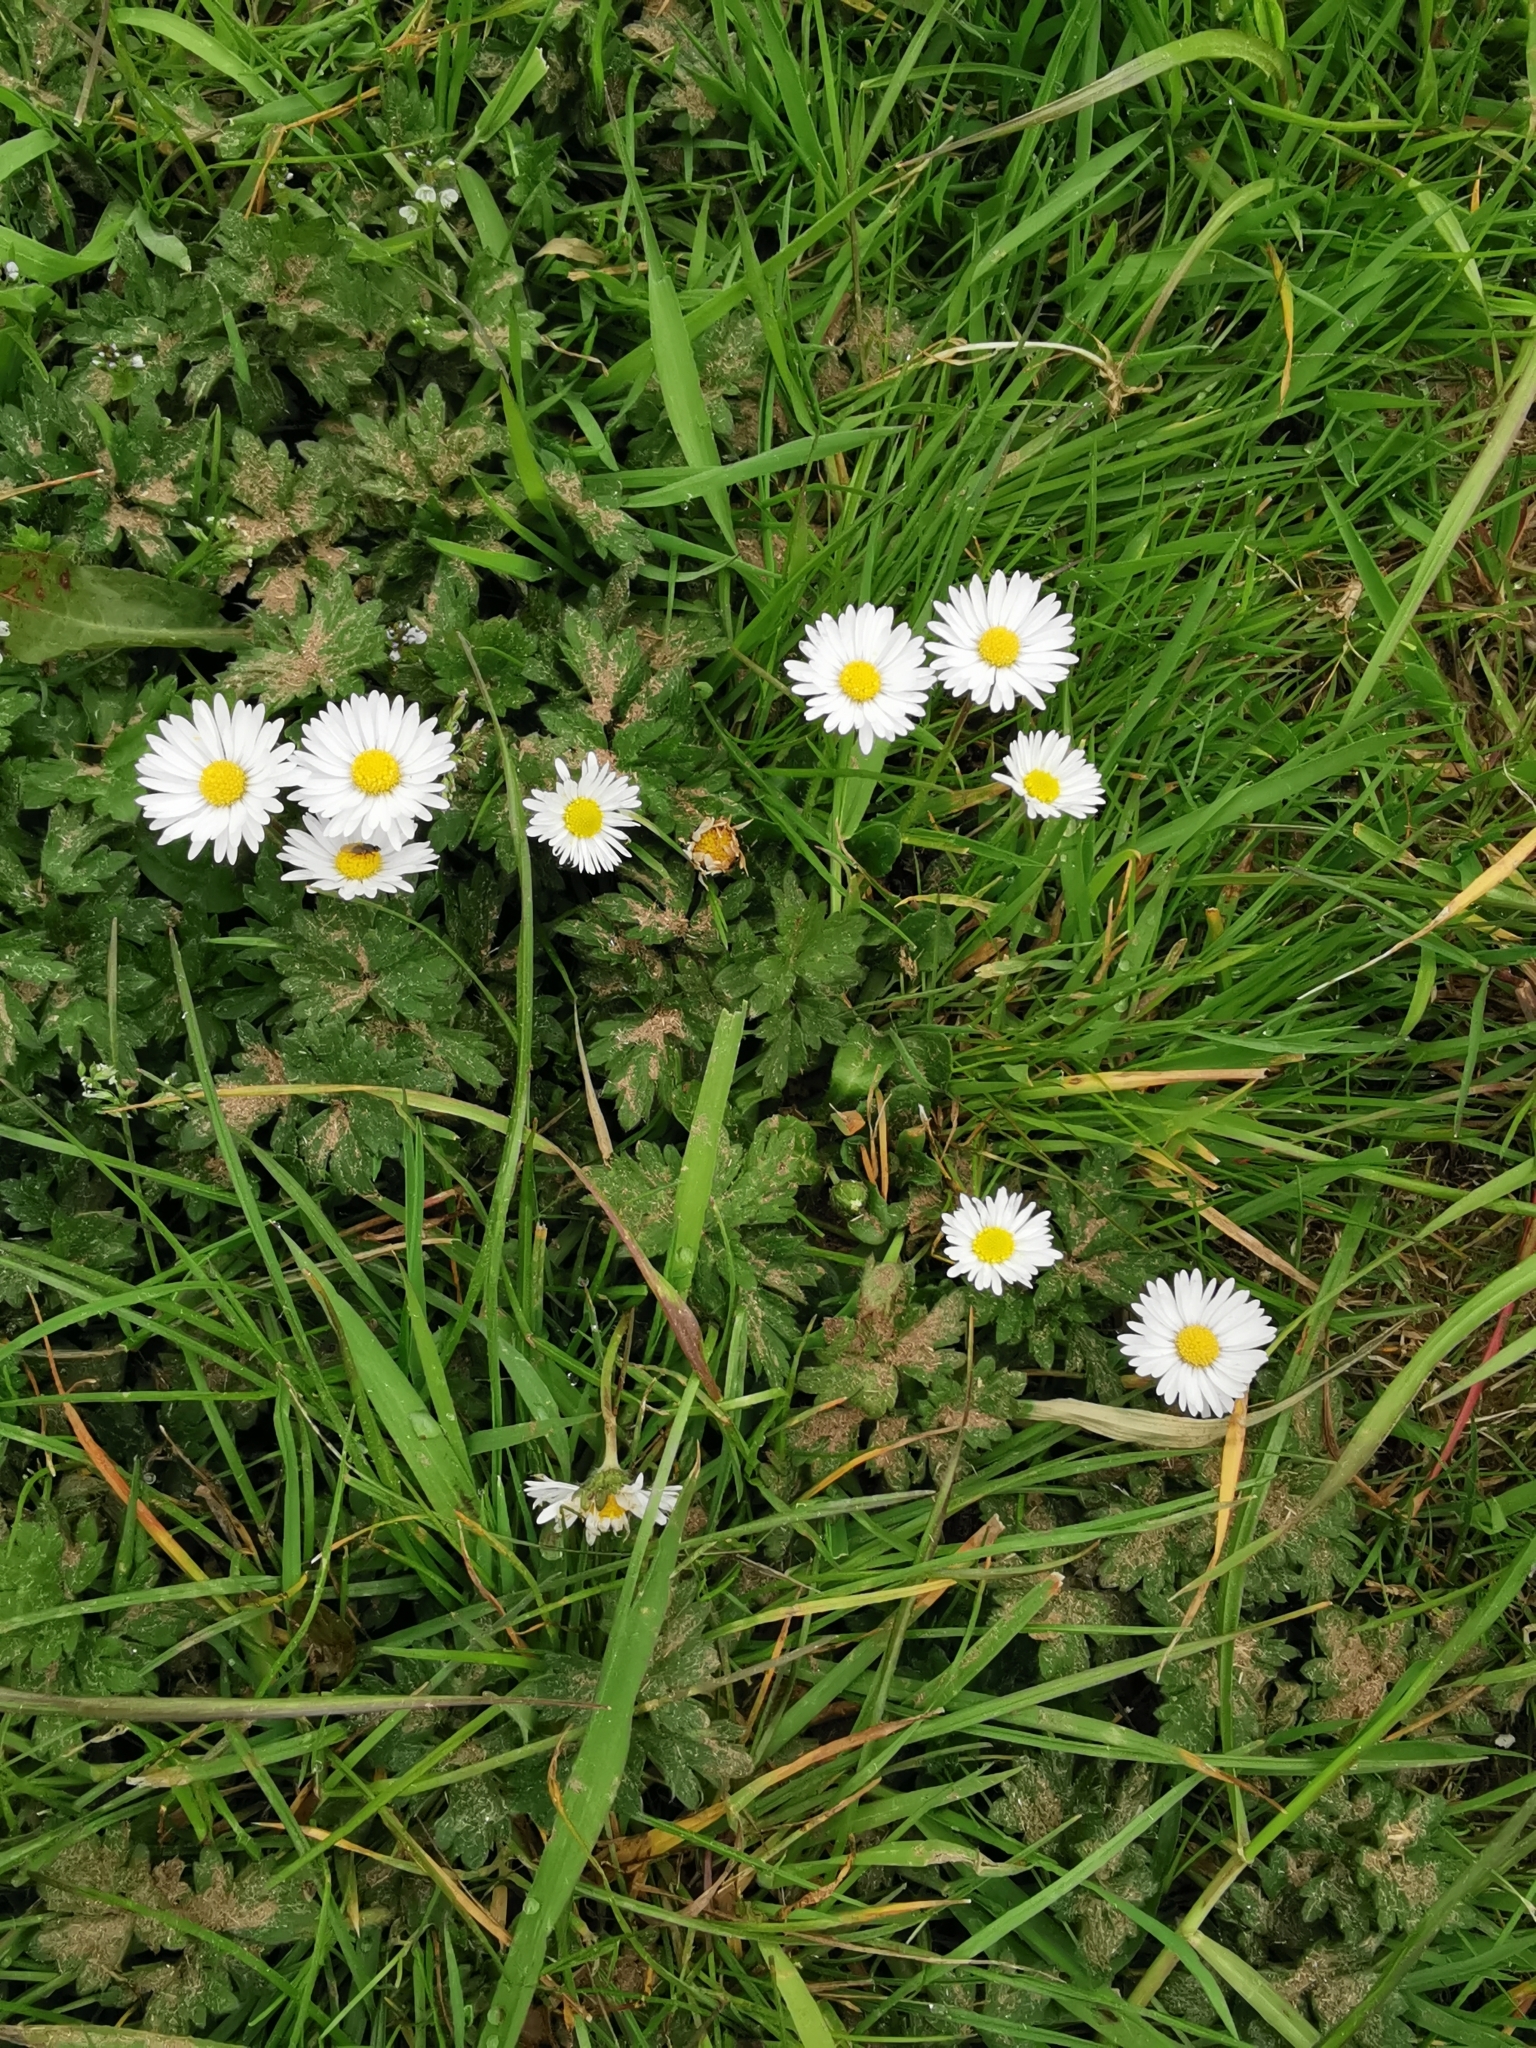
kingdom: Plantae
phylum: Tracheophyta
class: Magnoliopsida
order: Asterales
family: Asteraceae
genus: Bellis
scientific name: Bellis perennis
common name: Lawndaisy
